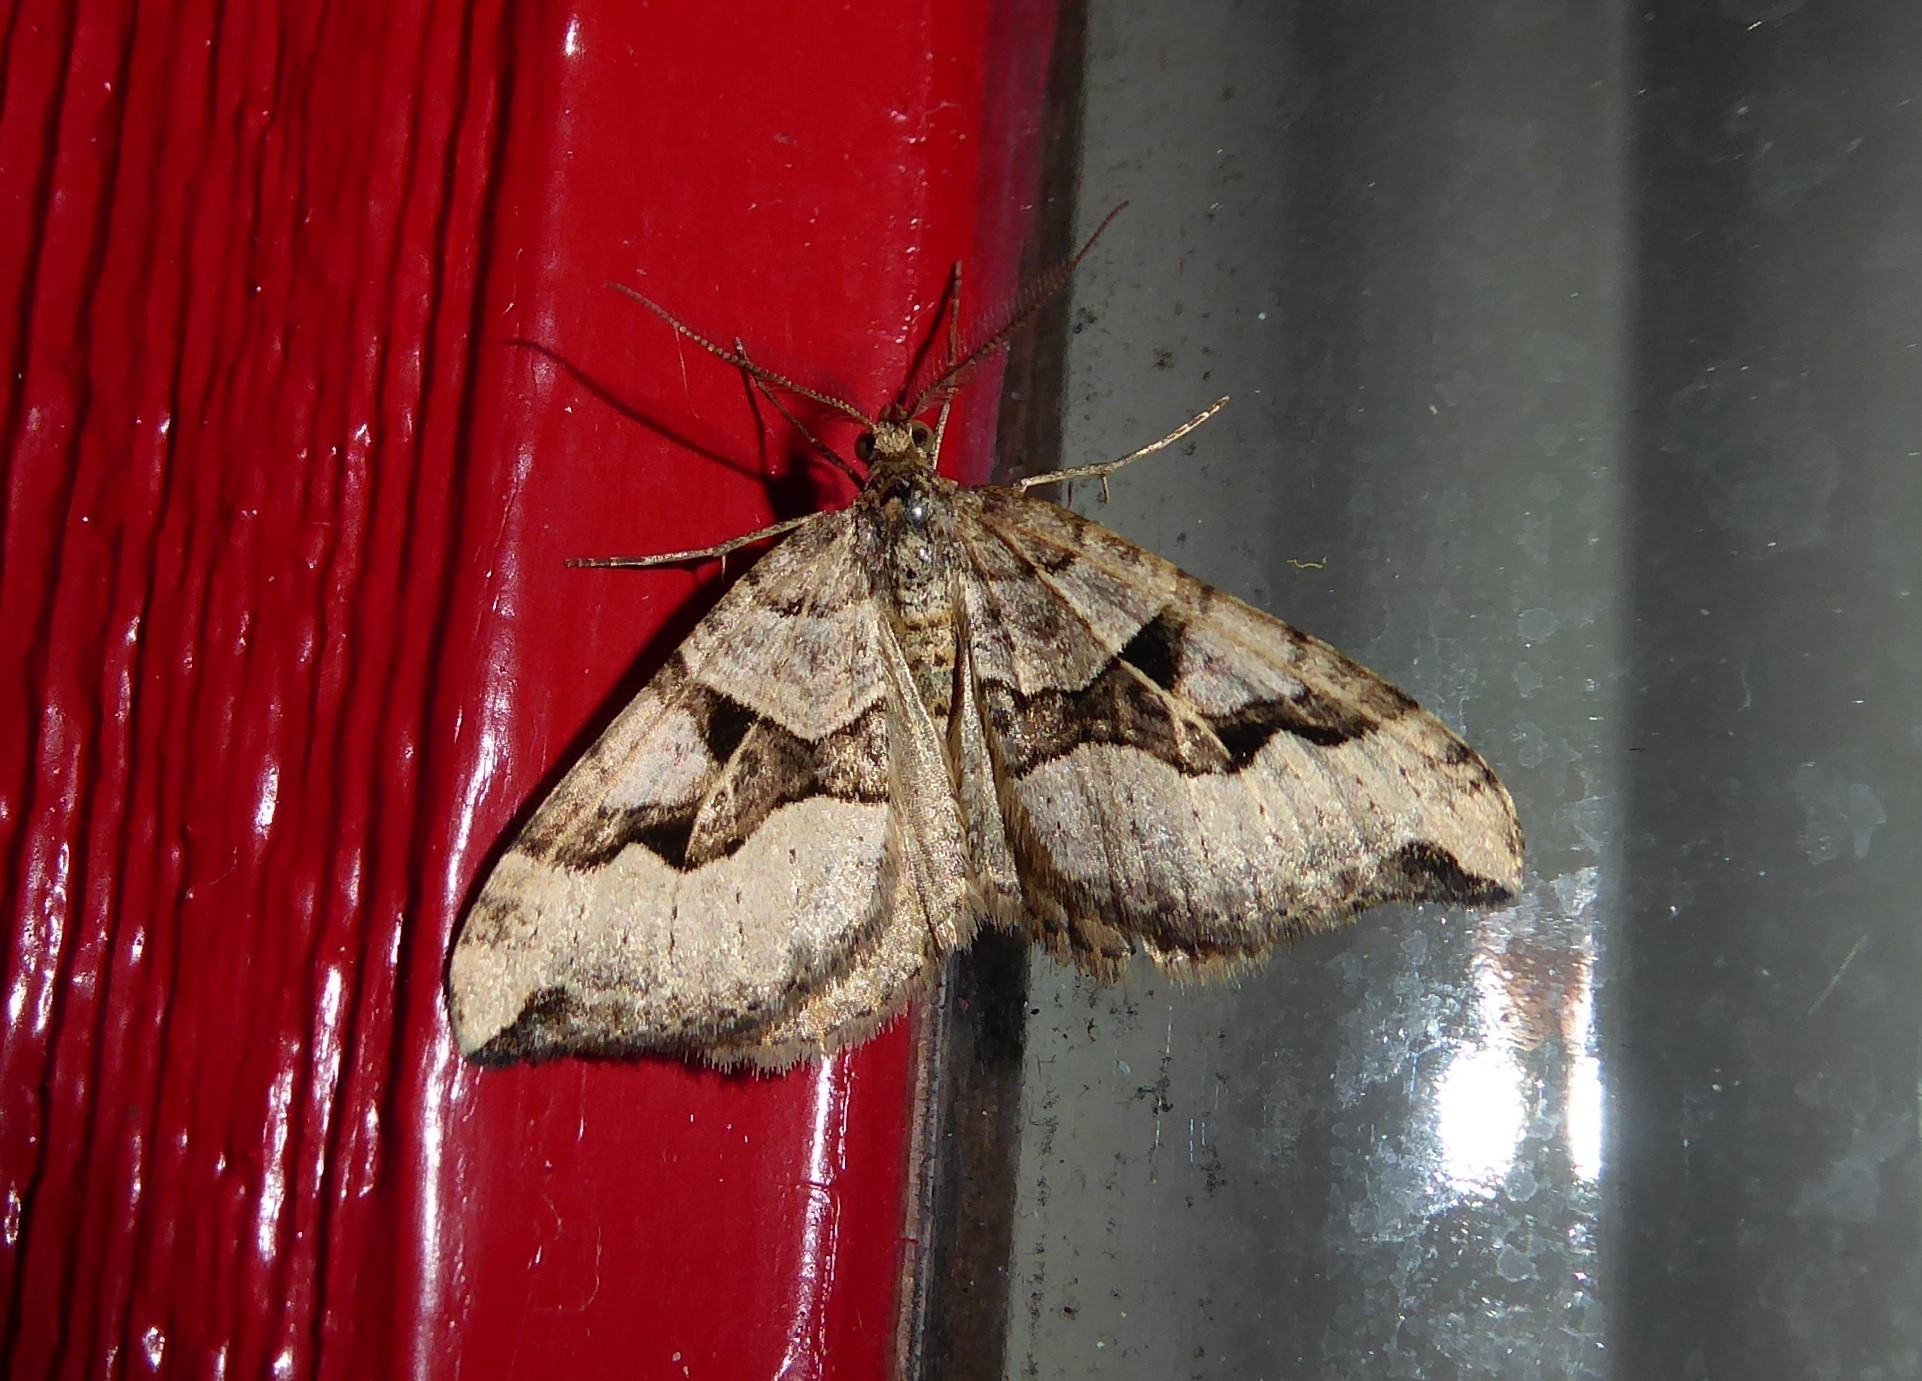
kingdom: Animalia
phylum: Arthropoda
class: Insecta
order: Lepidoptera
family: Geometridae
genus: Xanthorhoe
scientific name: Xanthorhoe semifissata
